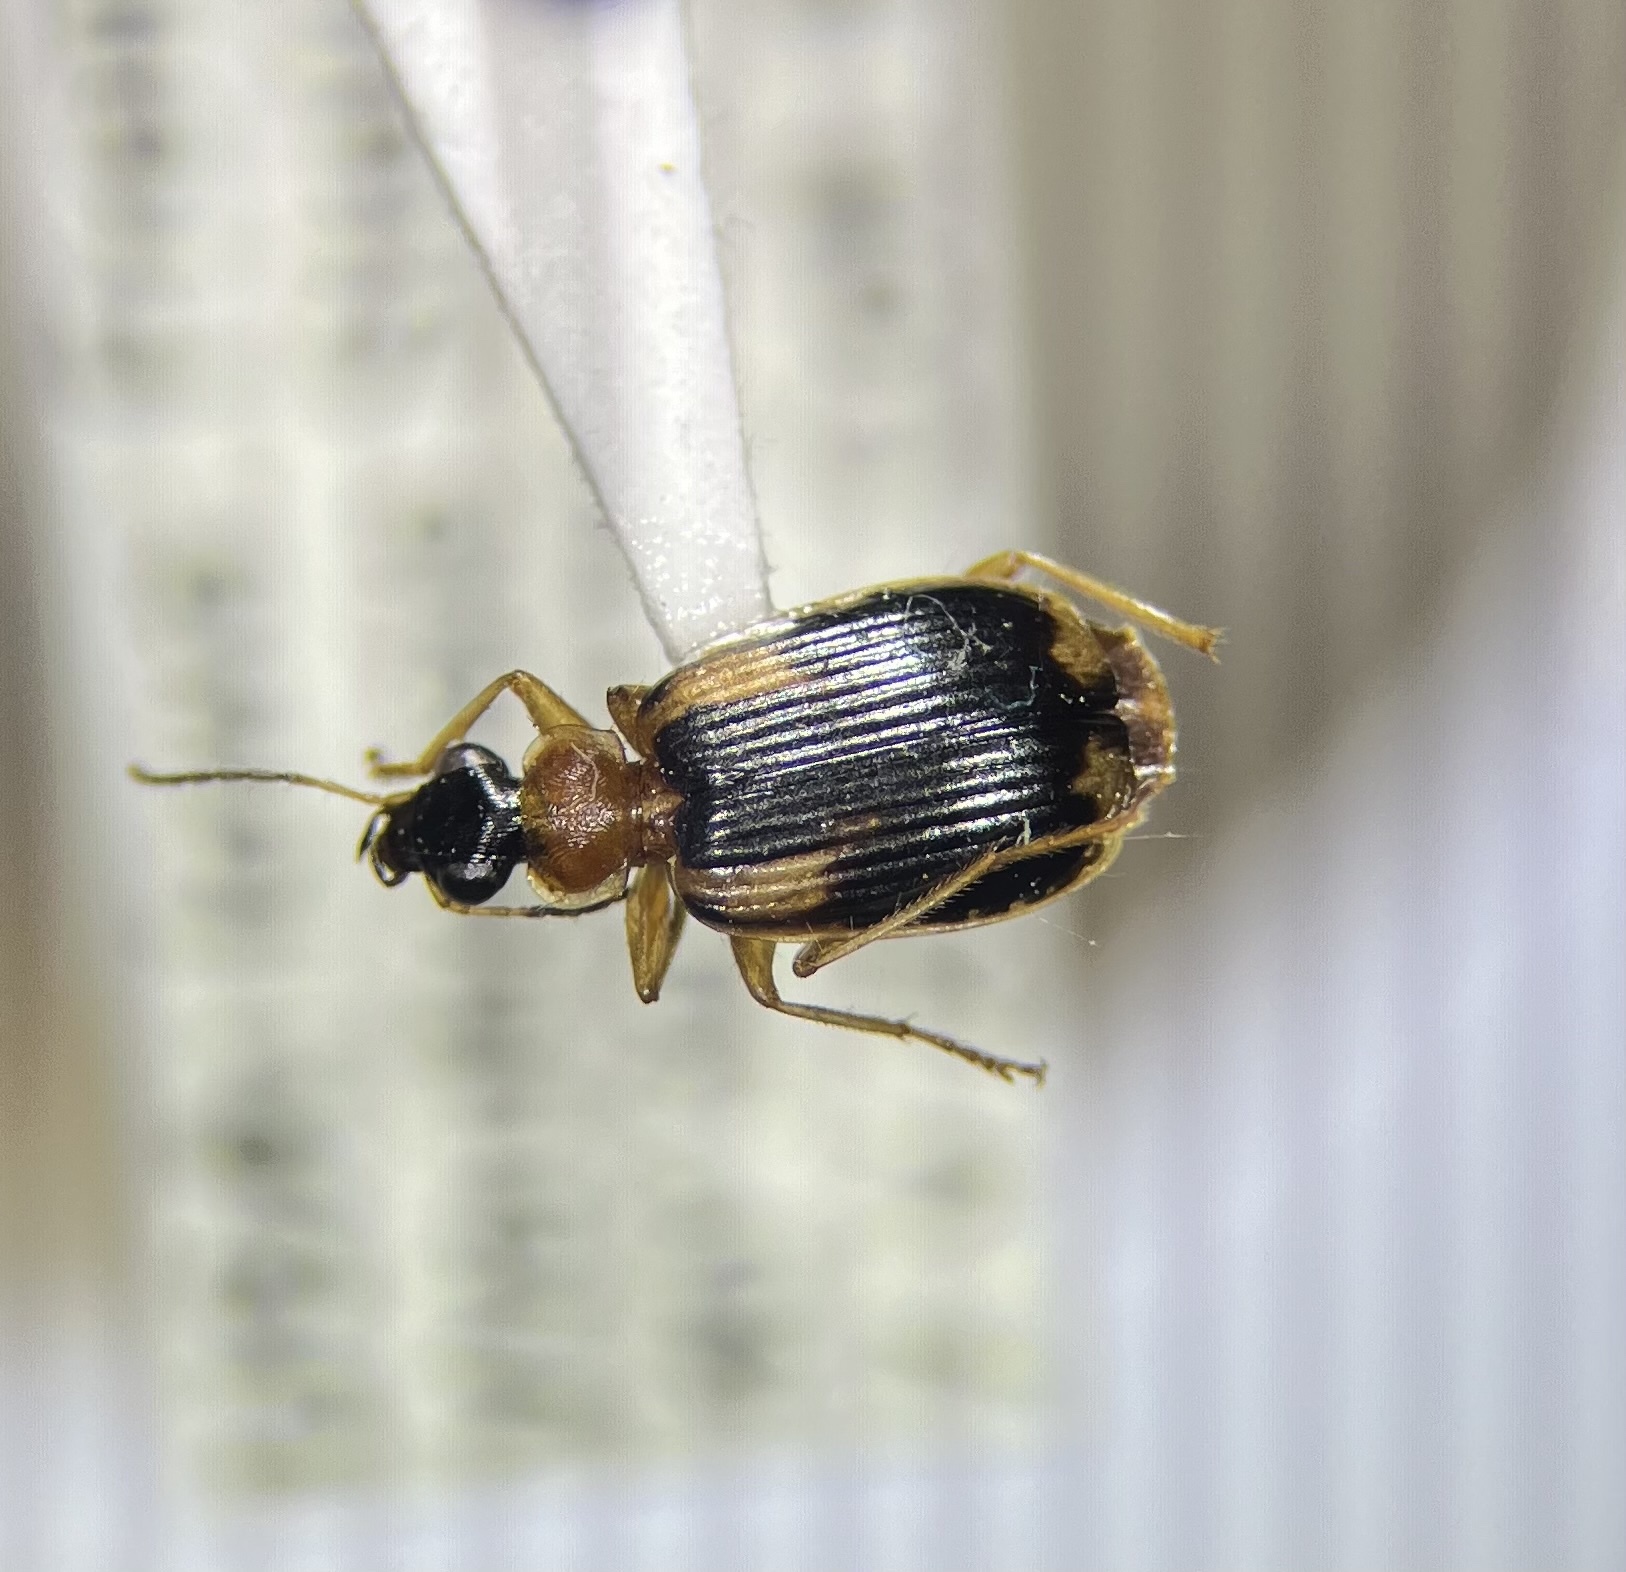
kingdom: Animalia
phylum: Arthropoda
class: Insecta
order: Coleoptera
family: Carabidae
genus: Lebia
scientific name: Lebia analis
